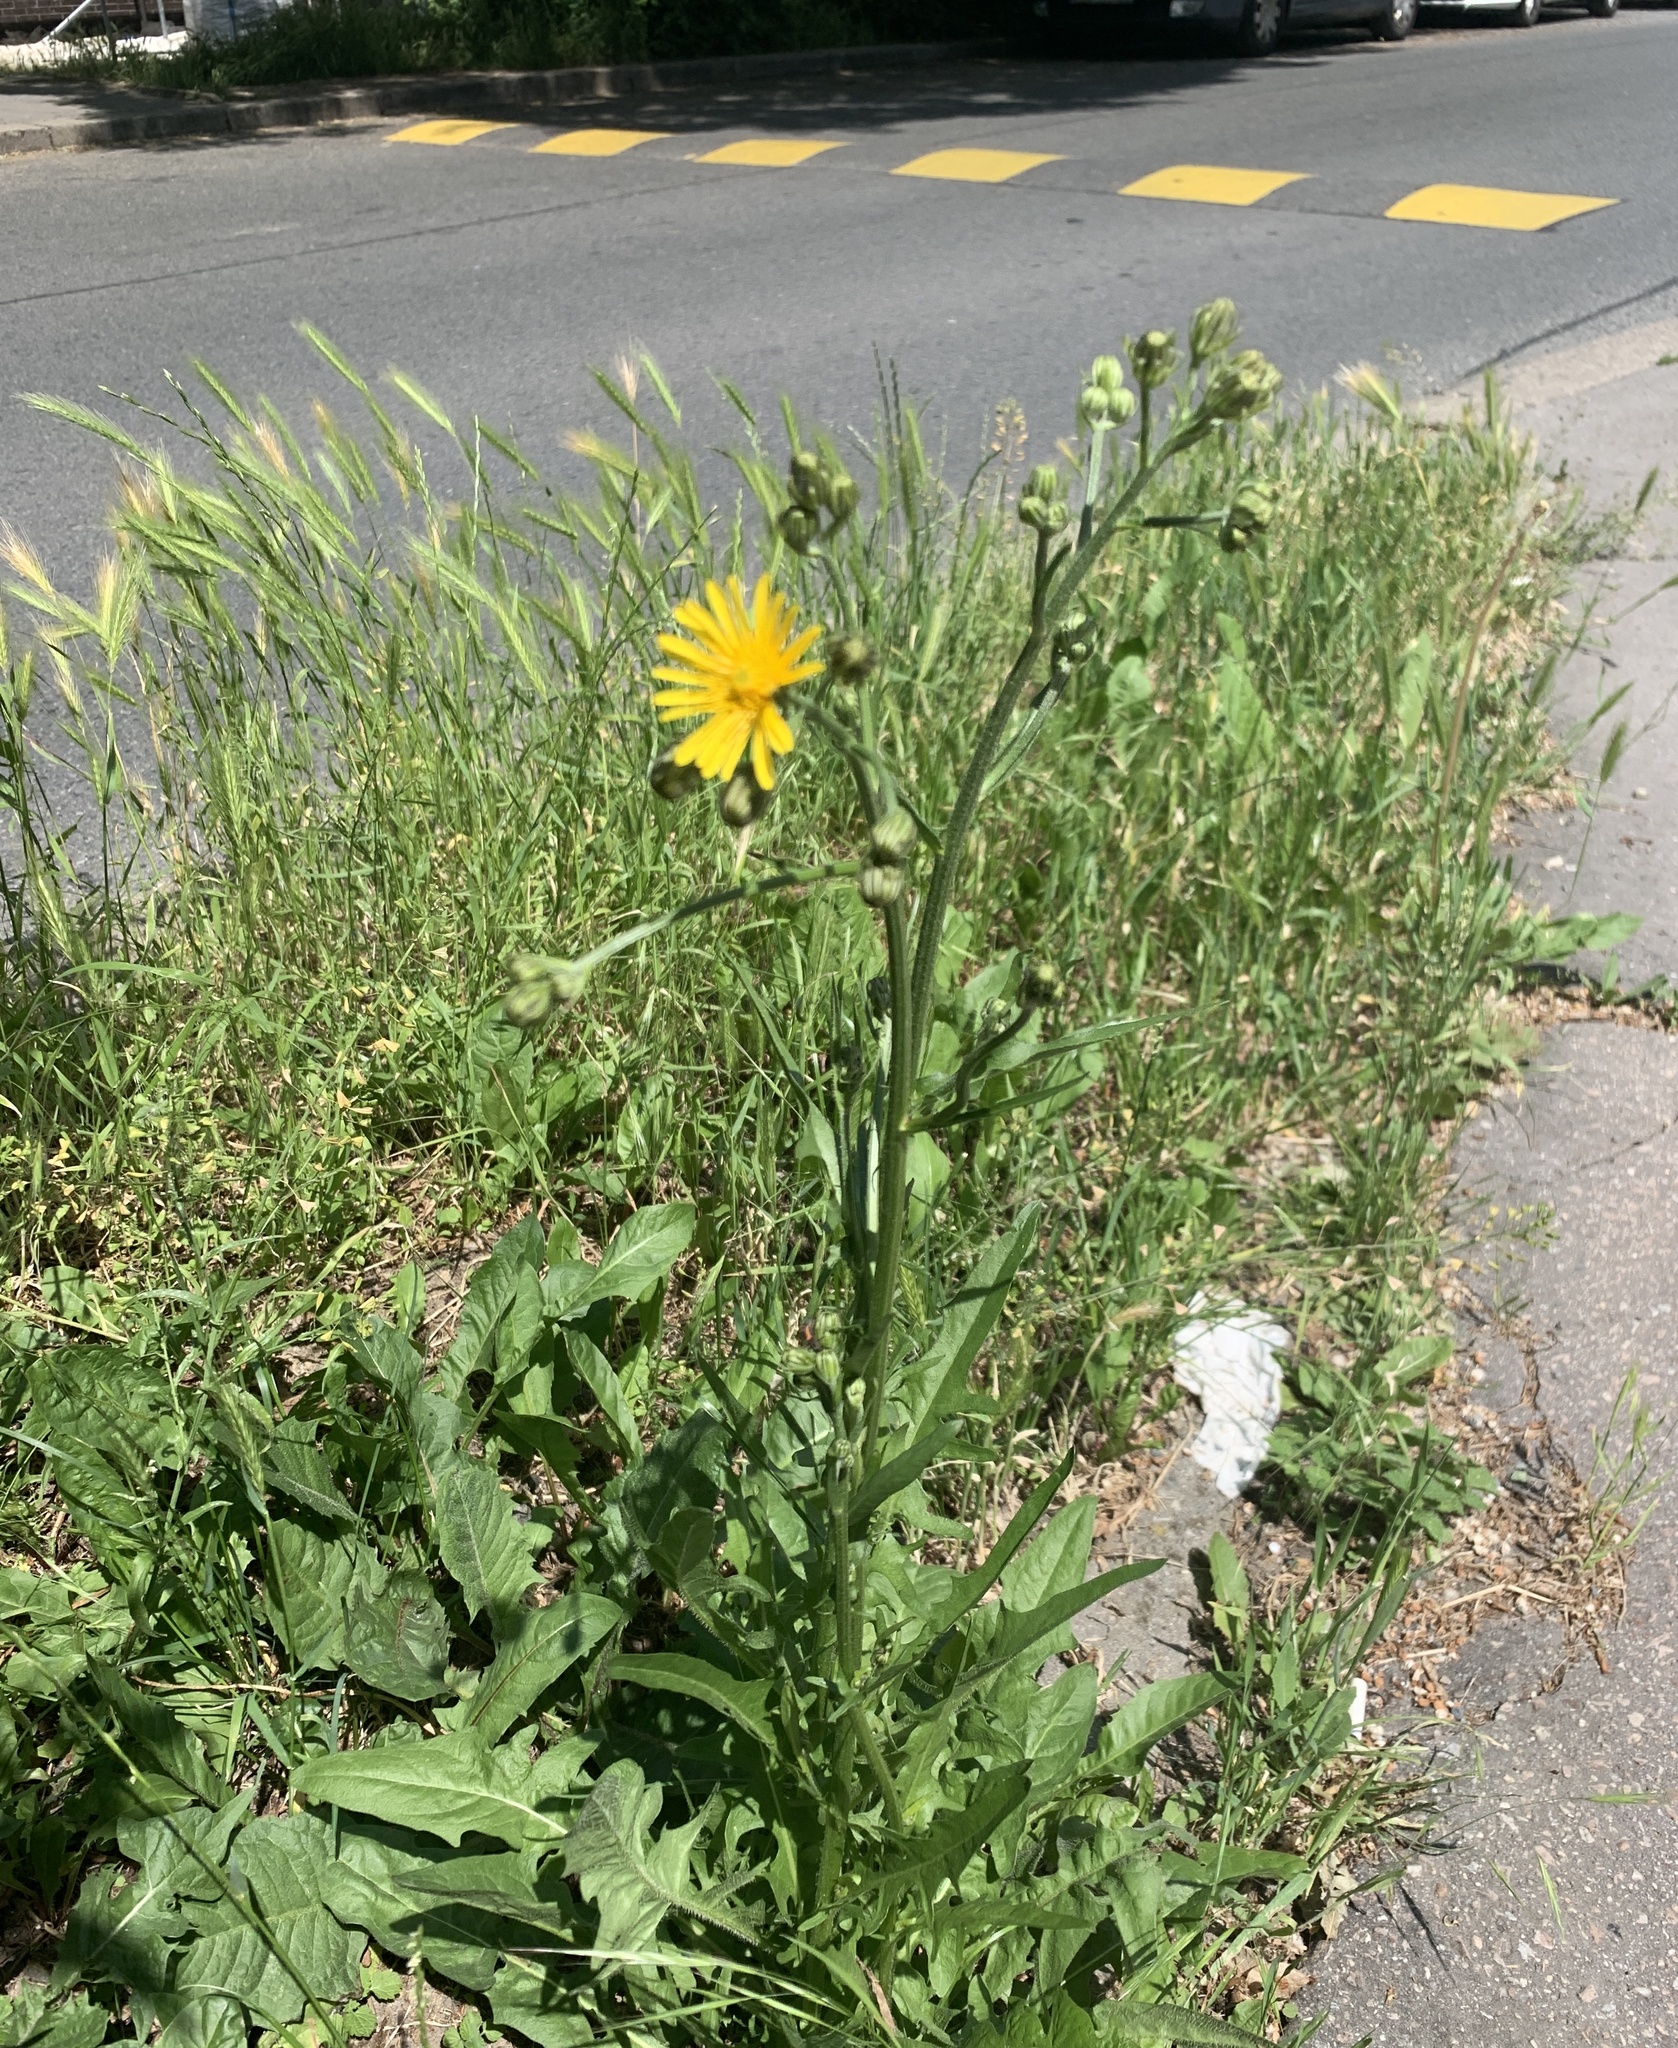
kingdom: Plantae
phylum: Tracheophyta
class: Magnoliopsida
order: Asterales
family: Asteraceae
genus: Crepis
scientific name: Crepis biennis
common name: Rough hawk's-beard
